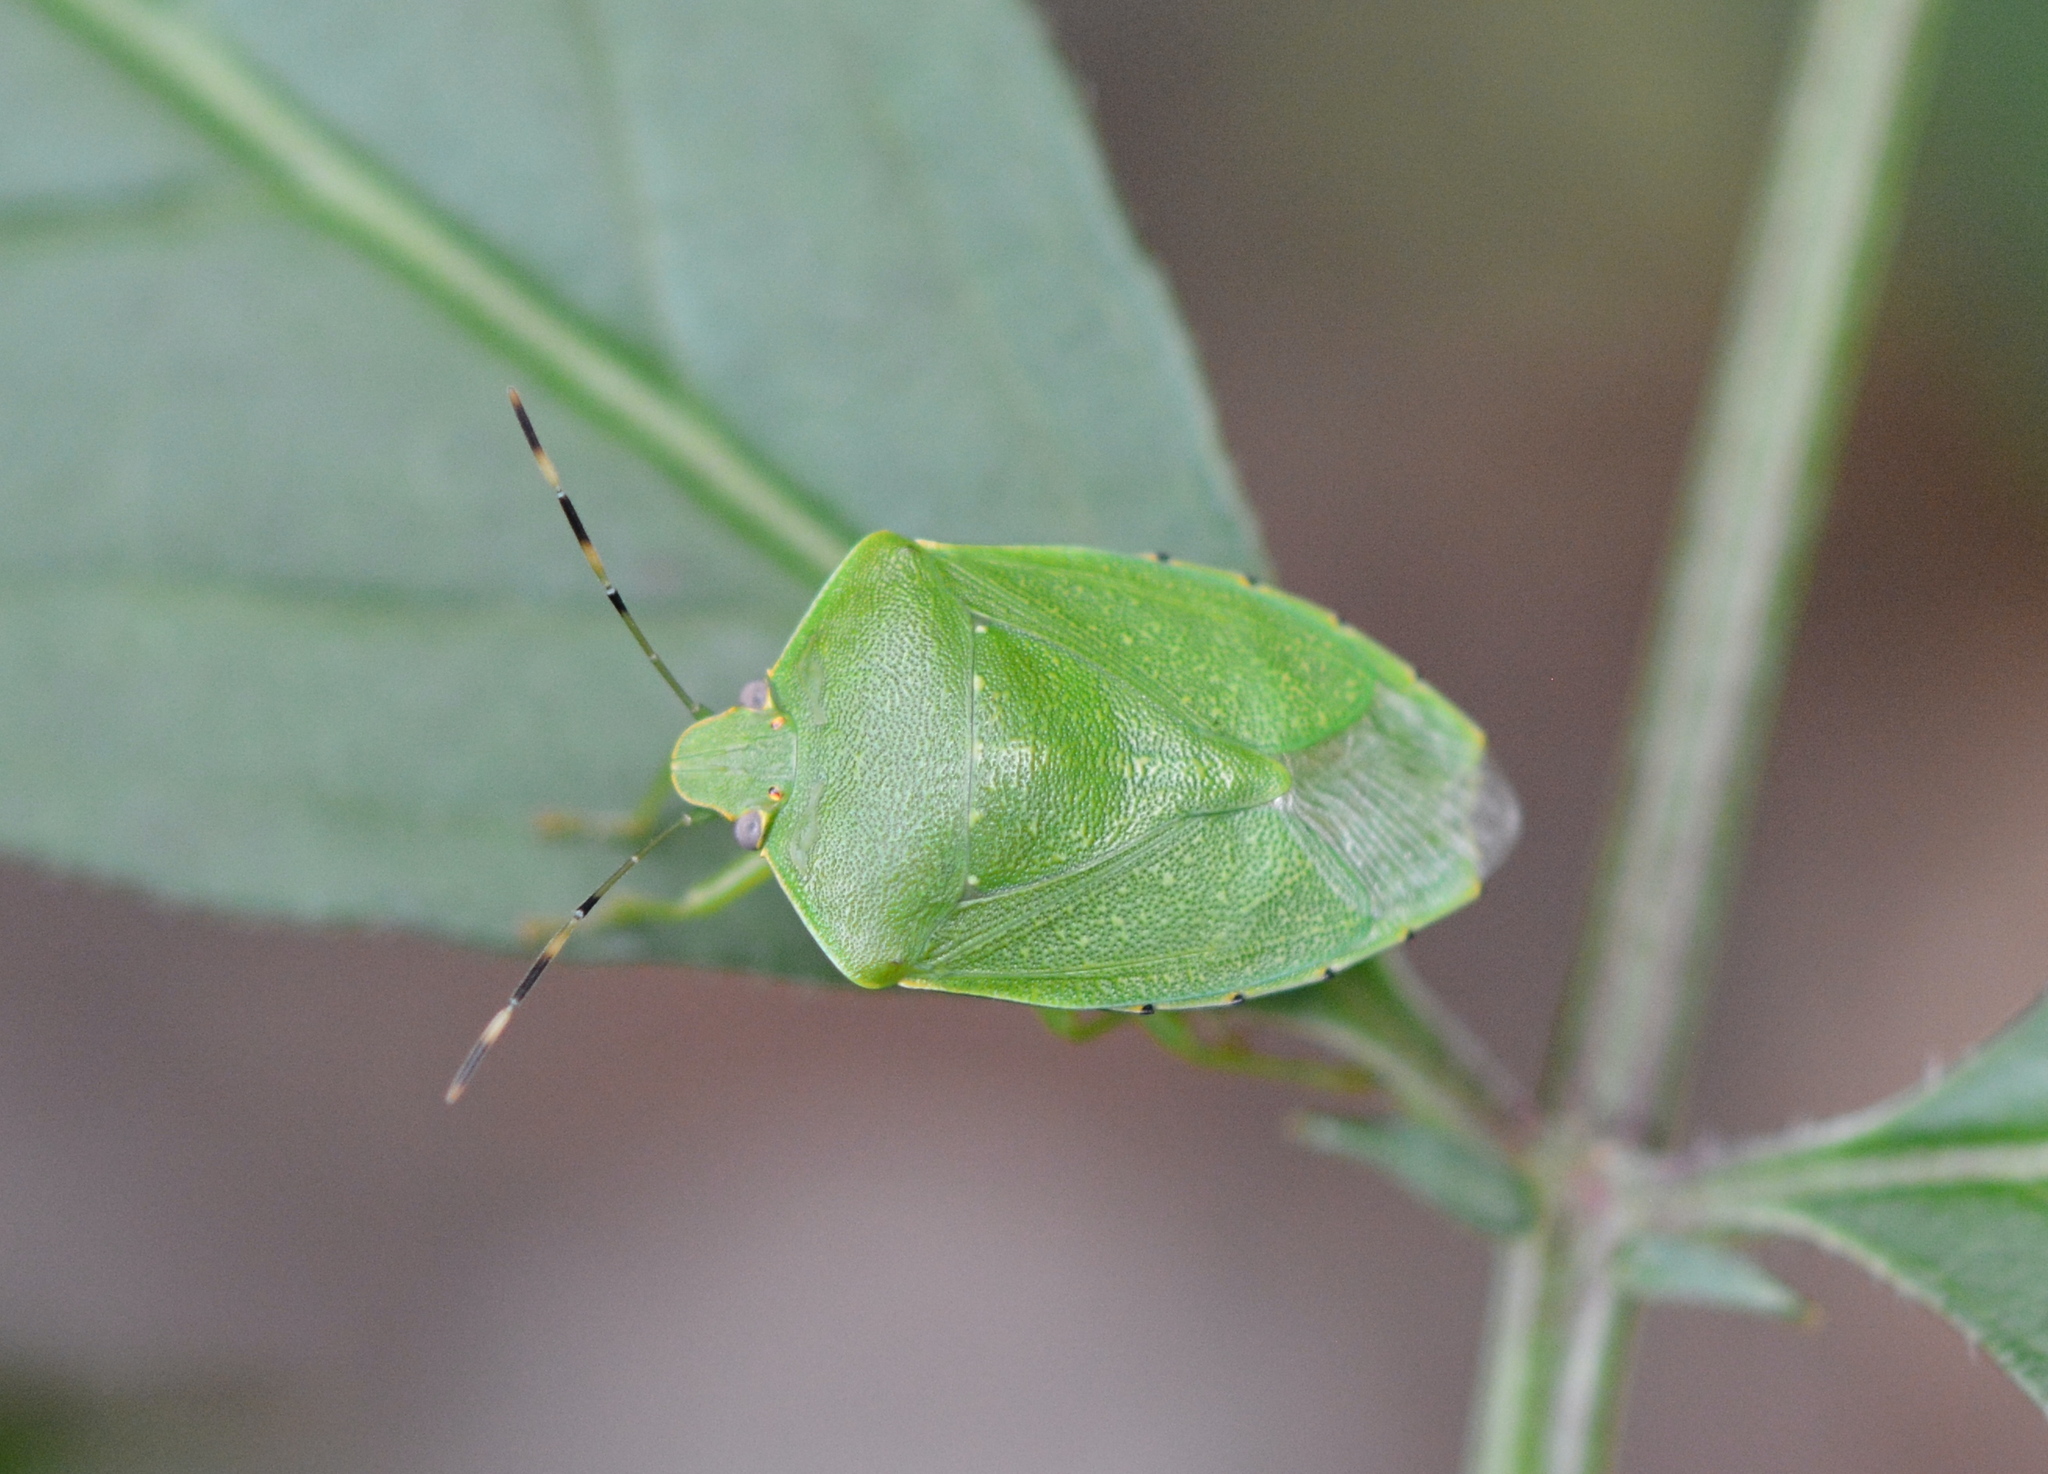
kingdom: Animalia
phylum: Arthropoda
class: Insecta
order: Hemiptera
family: Pentatomidae
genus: Chinavia
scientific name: Chinavia hilaris
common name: Green stink bug
